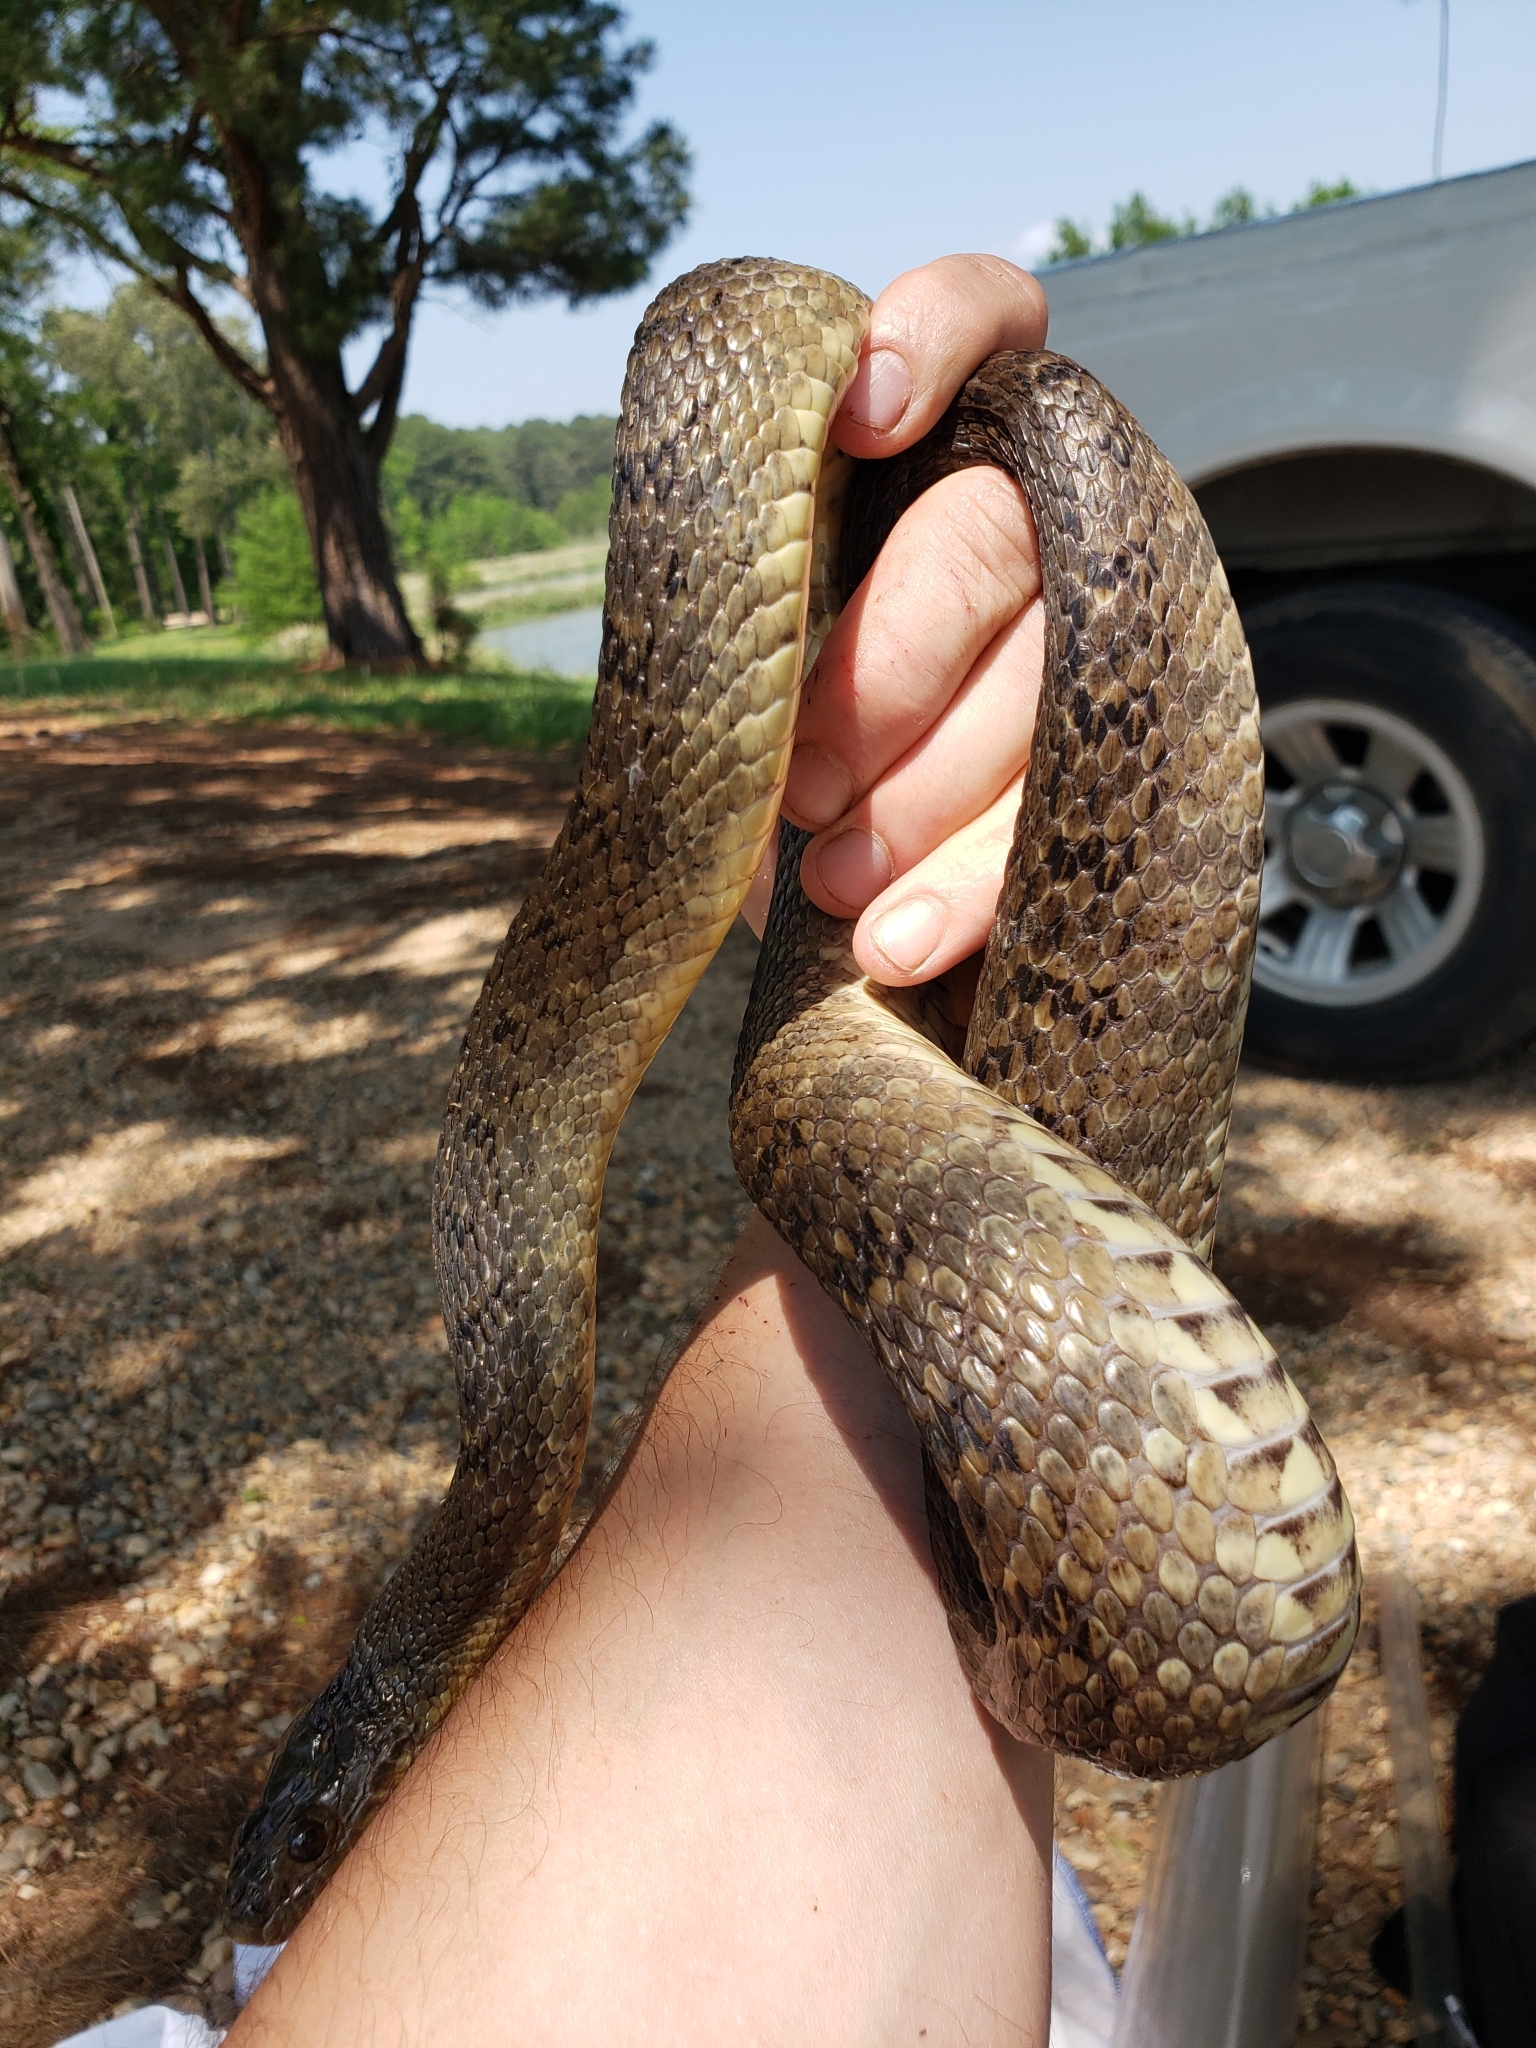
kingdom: Animalia
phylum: Chordata
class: Squamata
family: Colubridae
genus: Nerodia
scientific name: Nerodia cyclopion
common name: Mississippi green water snake
